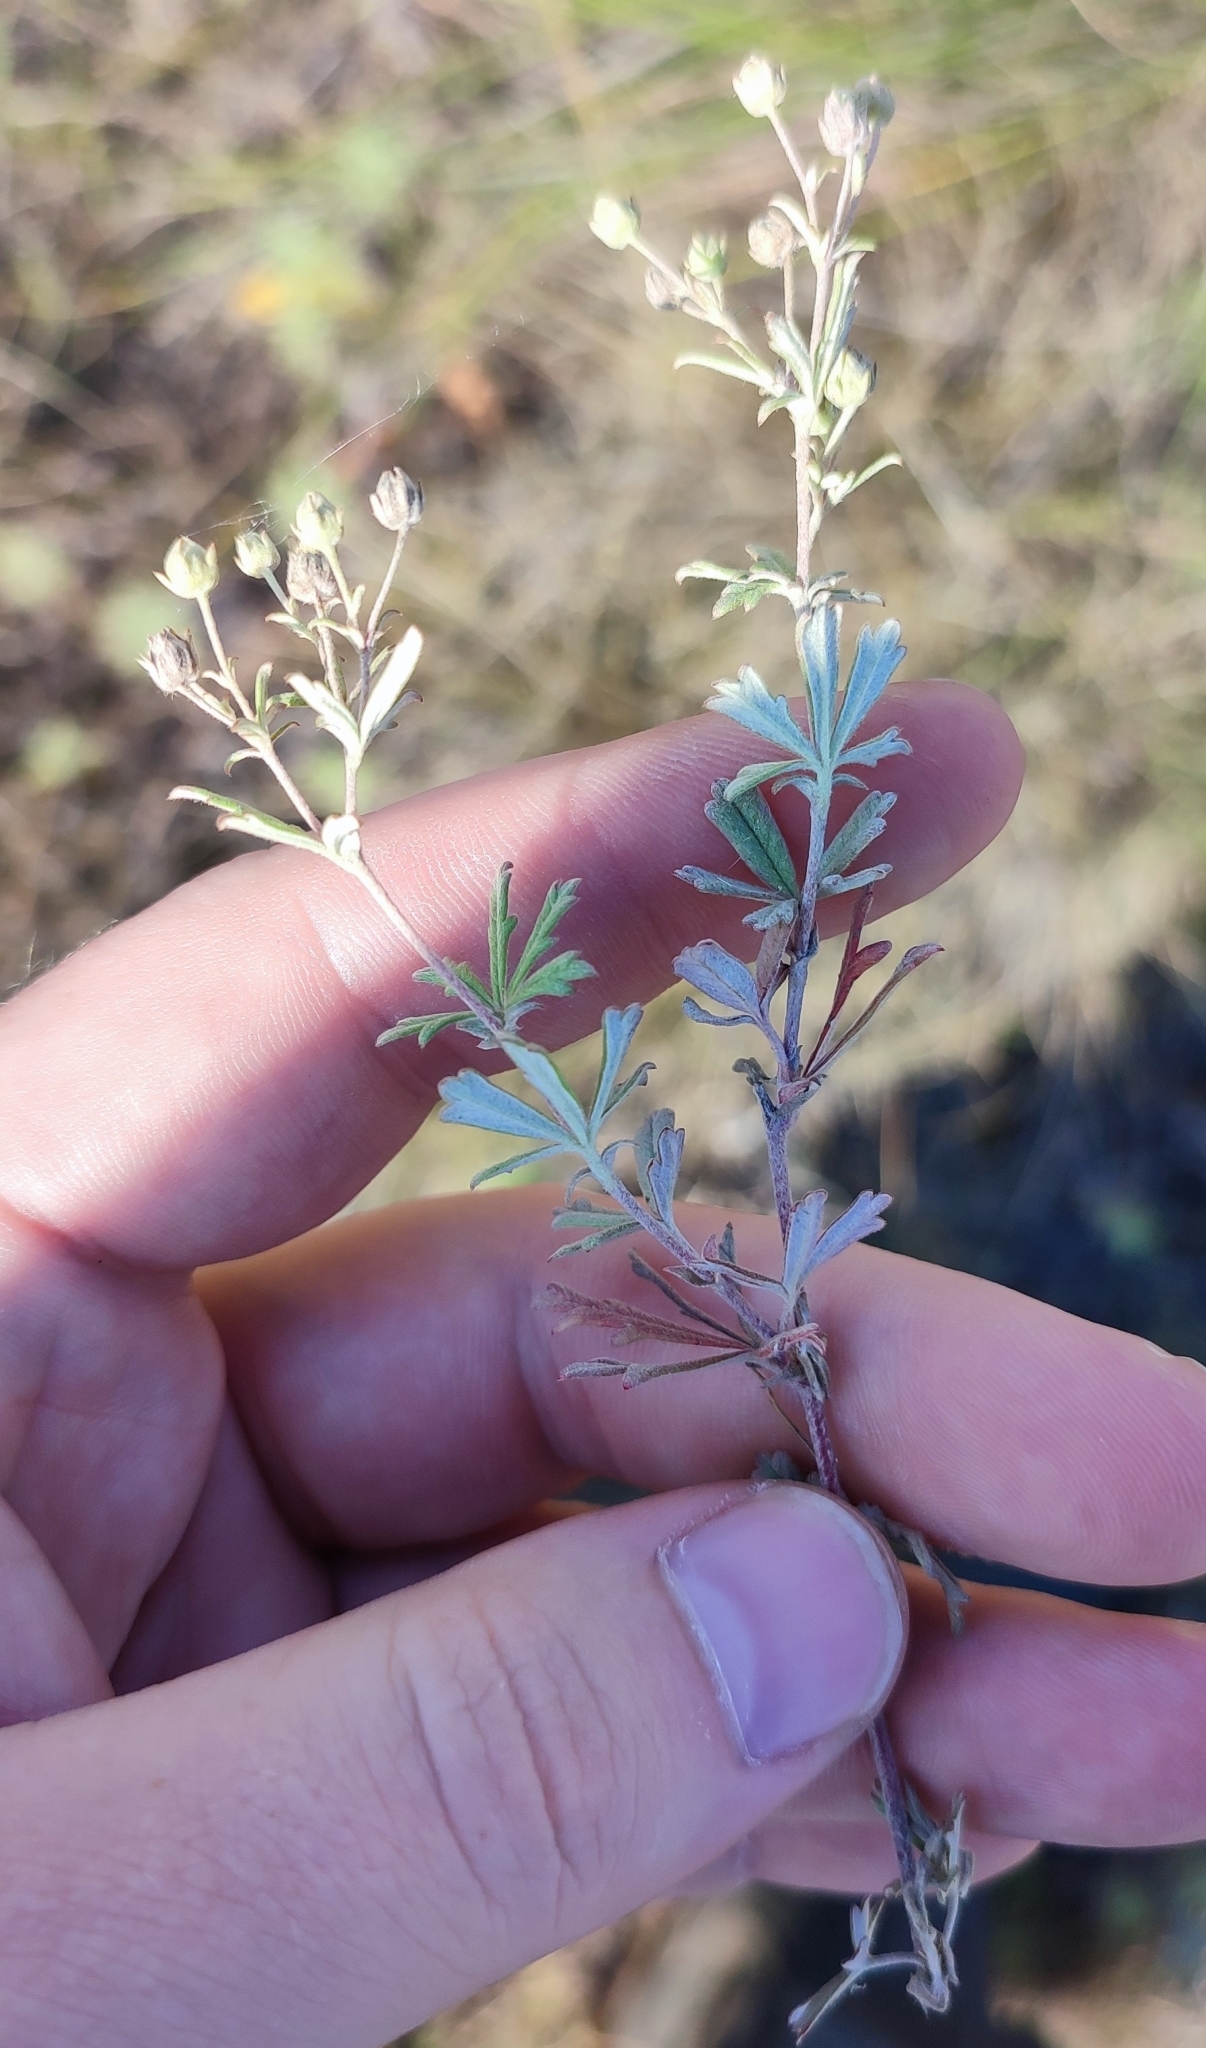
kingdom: Plantae
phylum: Tracheophyta
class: Magnoliopsida
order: Rosales
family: Rosaceae
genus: Potentilla
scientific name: Potentilla argentea
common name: Hoary cinquefoil
